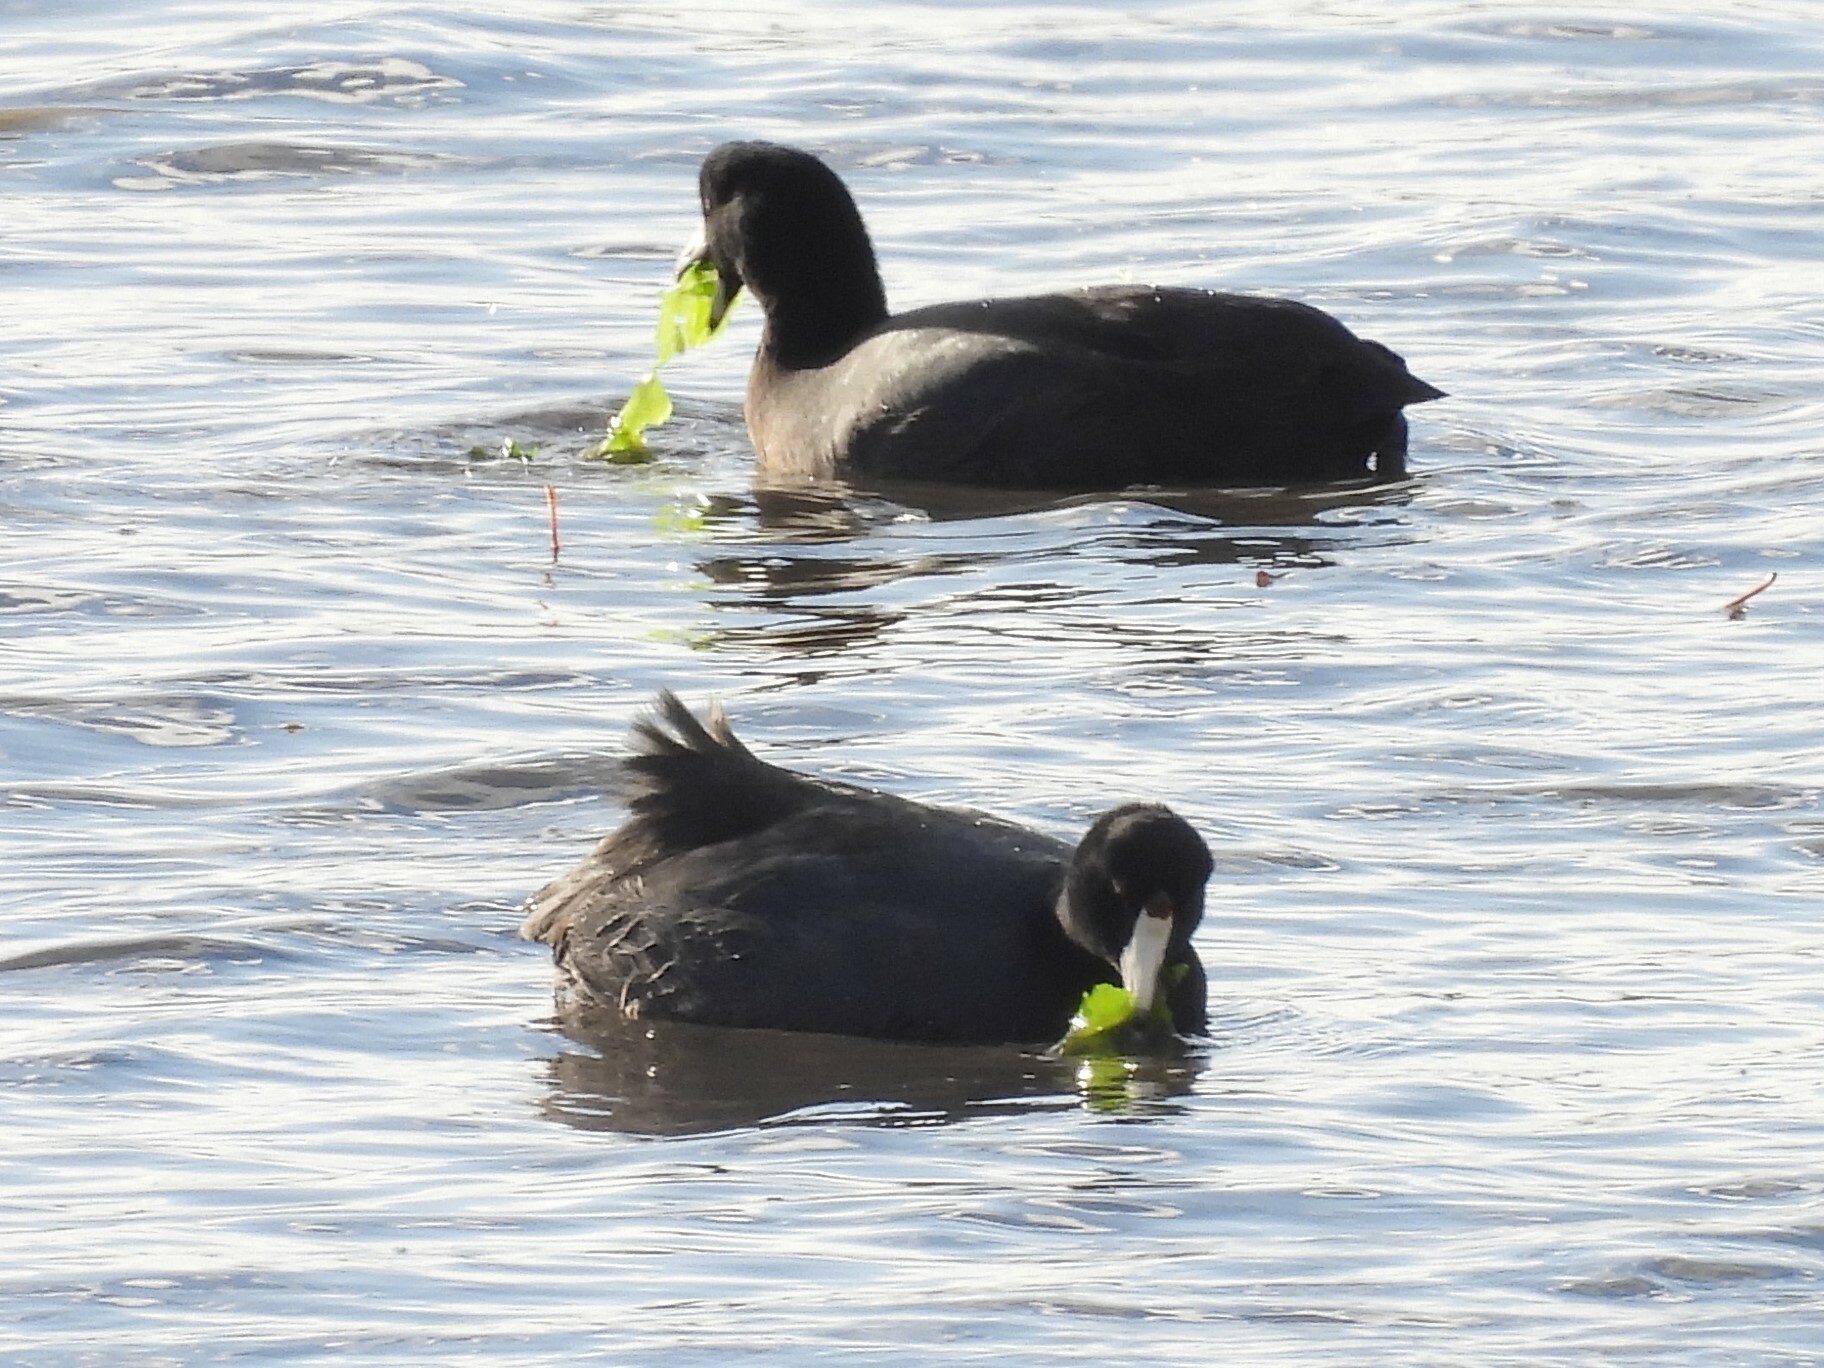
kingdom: Animalia
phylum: Chordata
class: Aves
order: Gruiformes
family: Rallidae
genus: Fulica
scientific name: Fulica americana
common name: American coot
